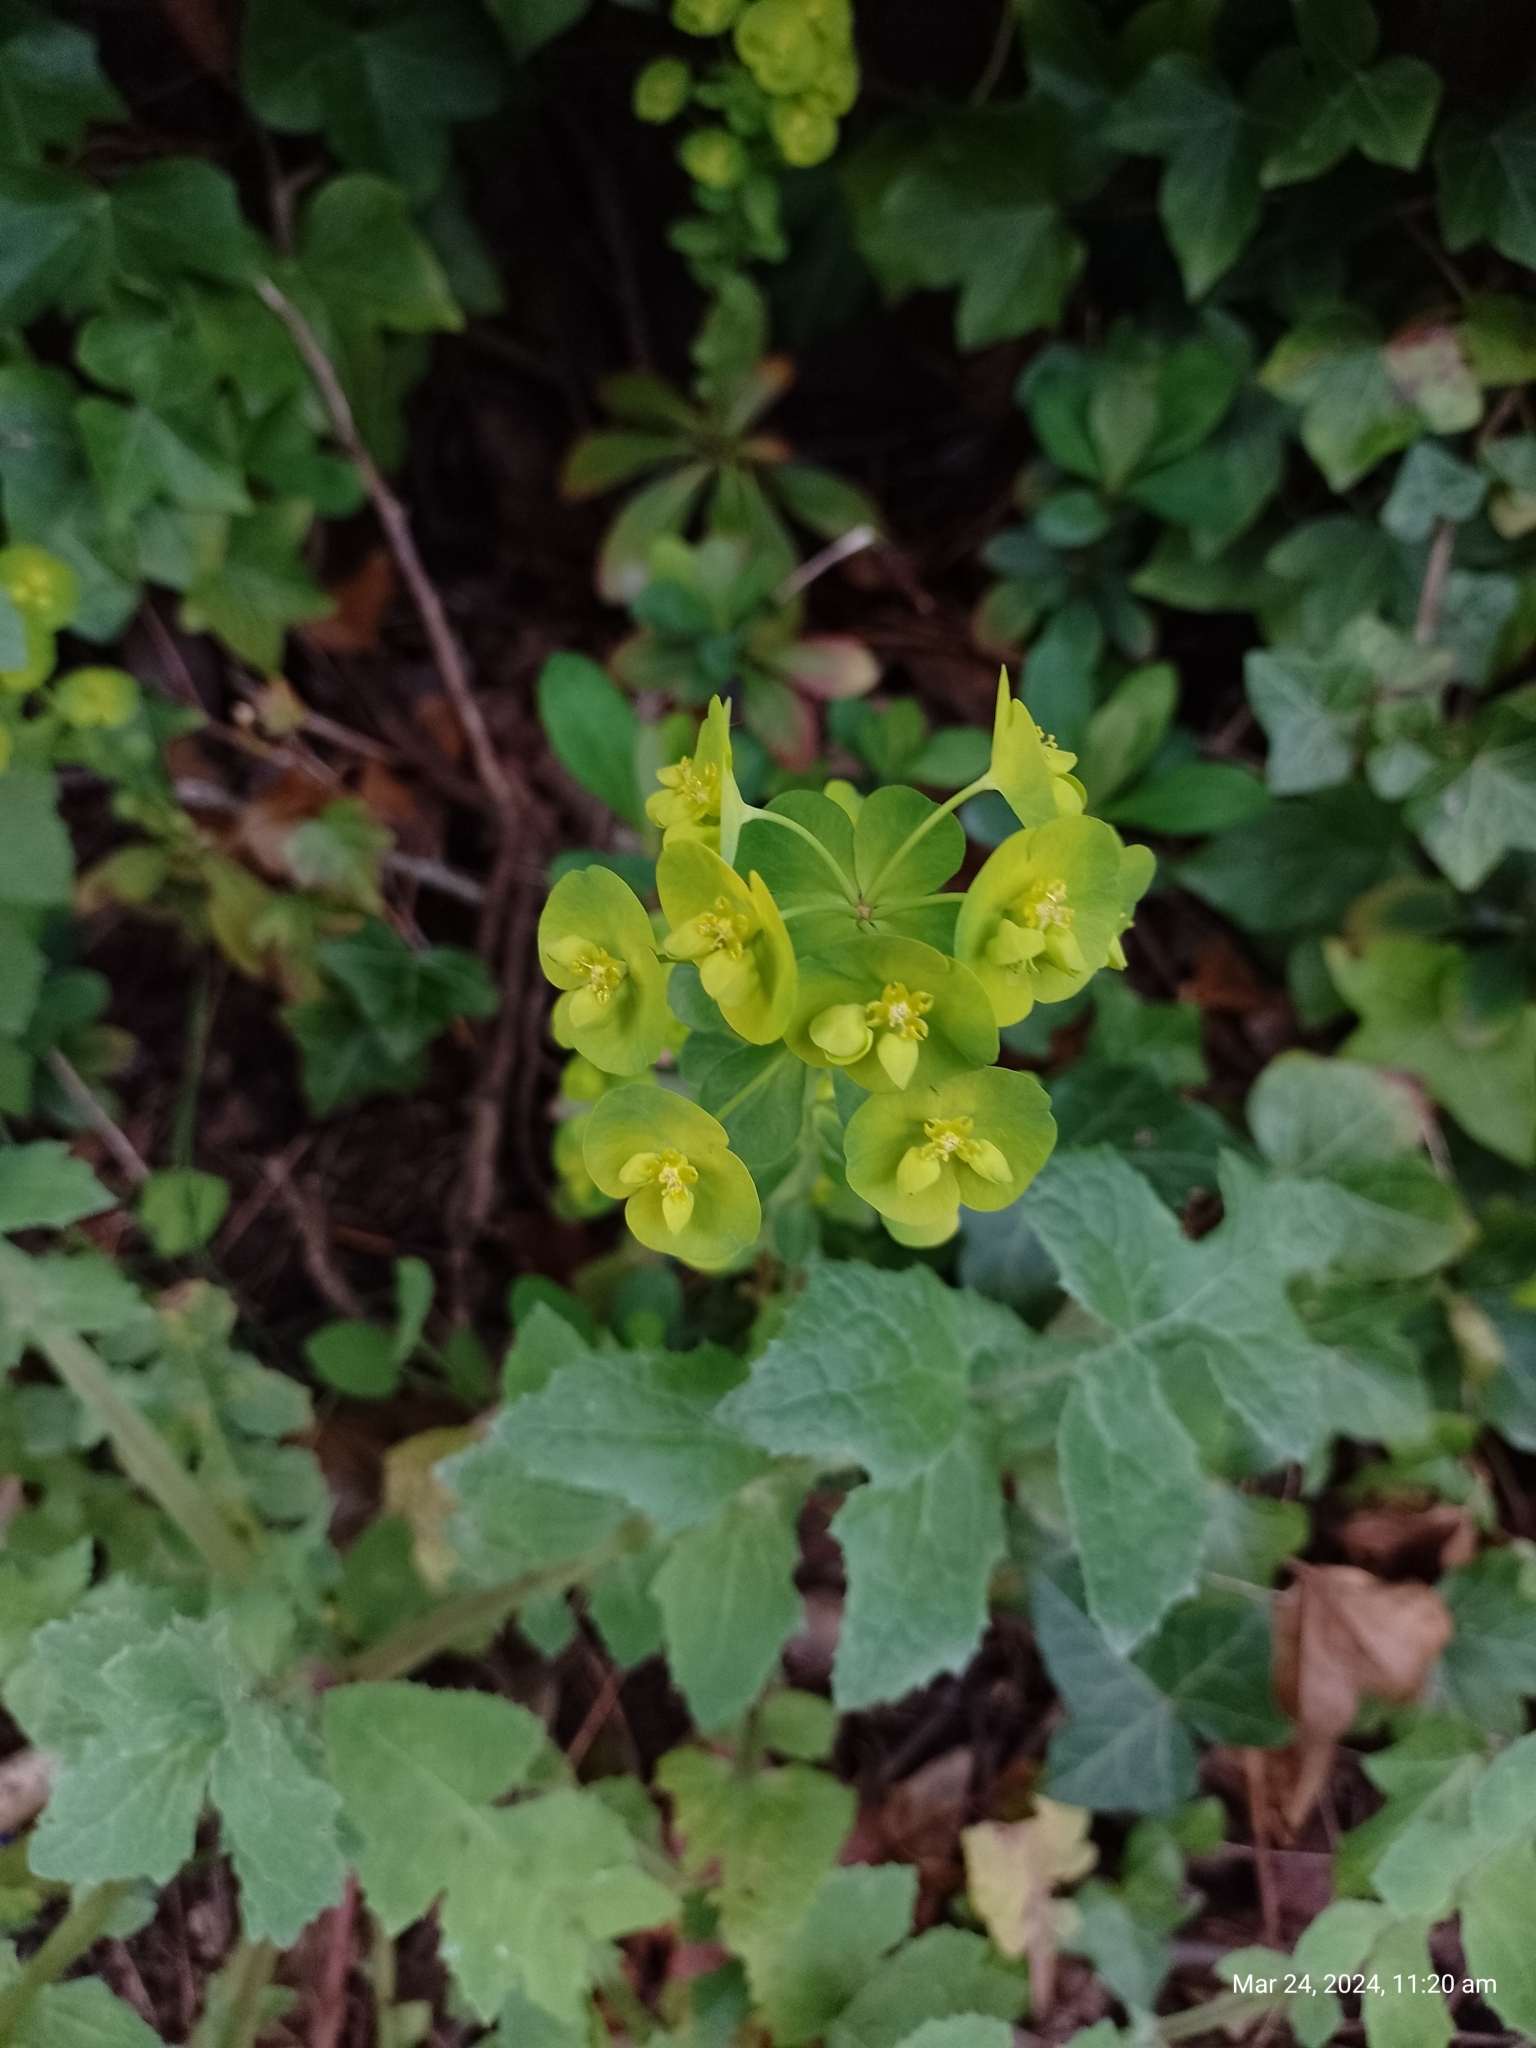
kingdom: Plantae
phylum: Tracheophyta
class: Magnoliopsida
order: Malpighiales
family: Euphorbiaceae
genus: Euphorbia
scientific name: Euphorbia amygdaloides
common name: Wood spurge
